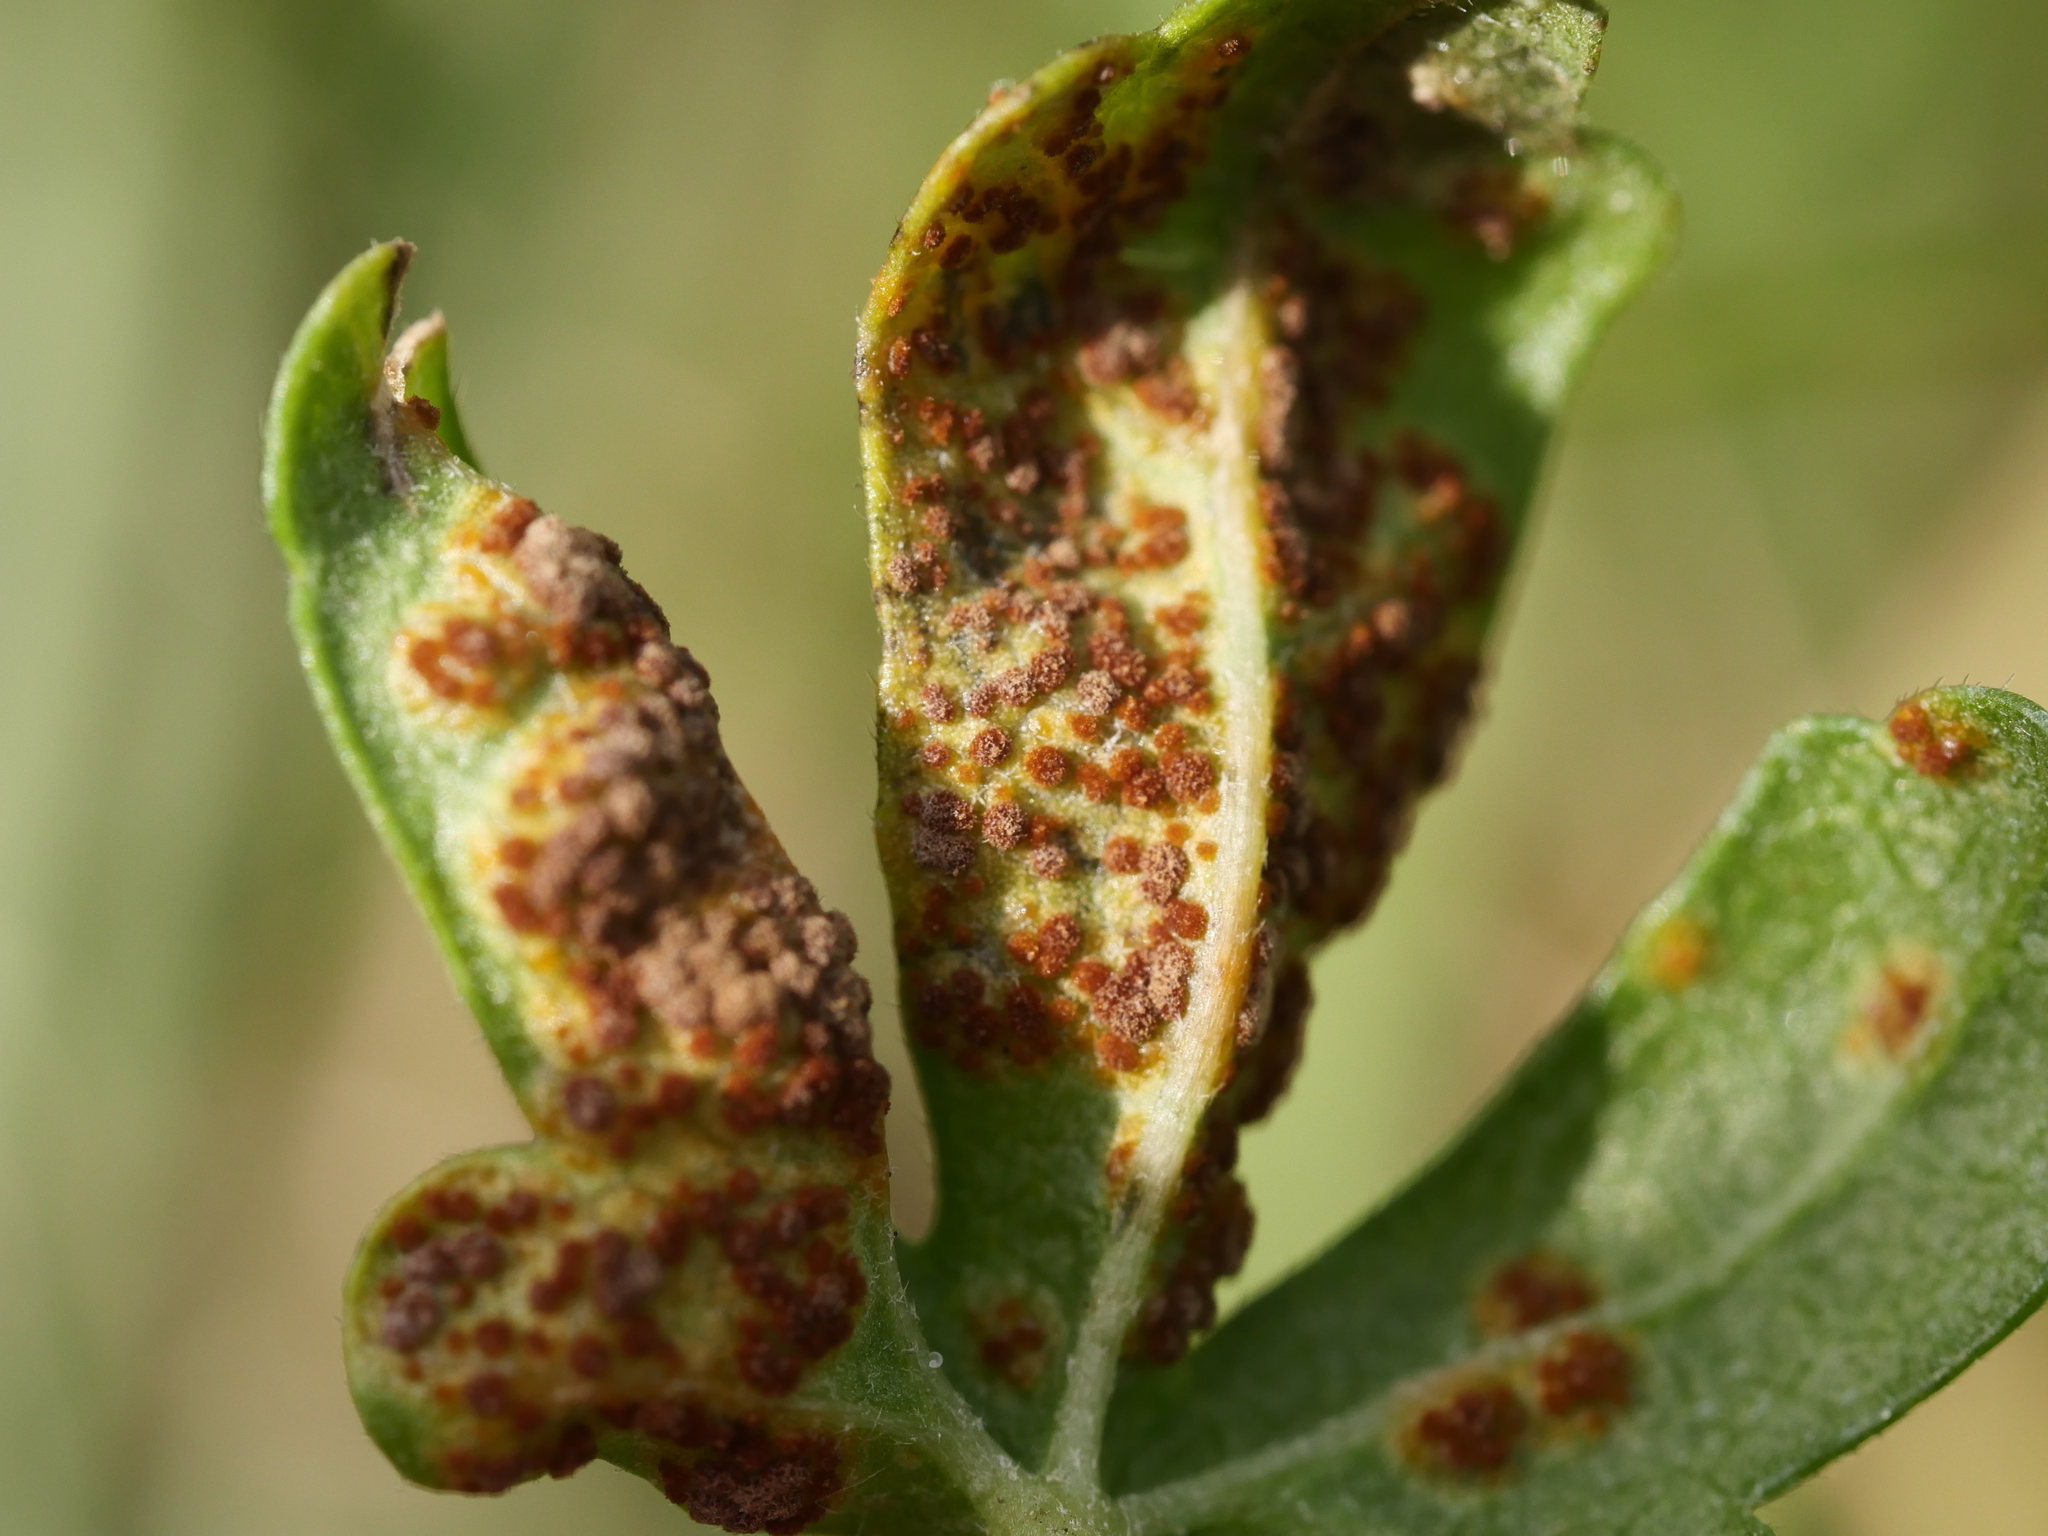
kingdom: Fungi
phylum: Basidiomycota
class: Pucciniomycetes
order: Pucciniales
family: Pucciniaceae
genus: Puccinia
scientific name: Puccinia malvacearum
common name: Hollyhock rust
